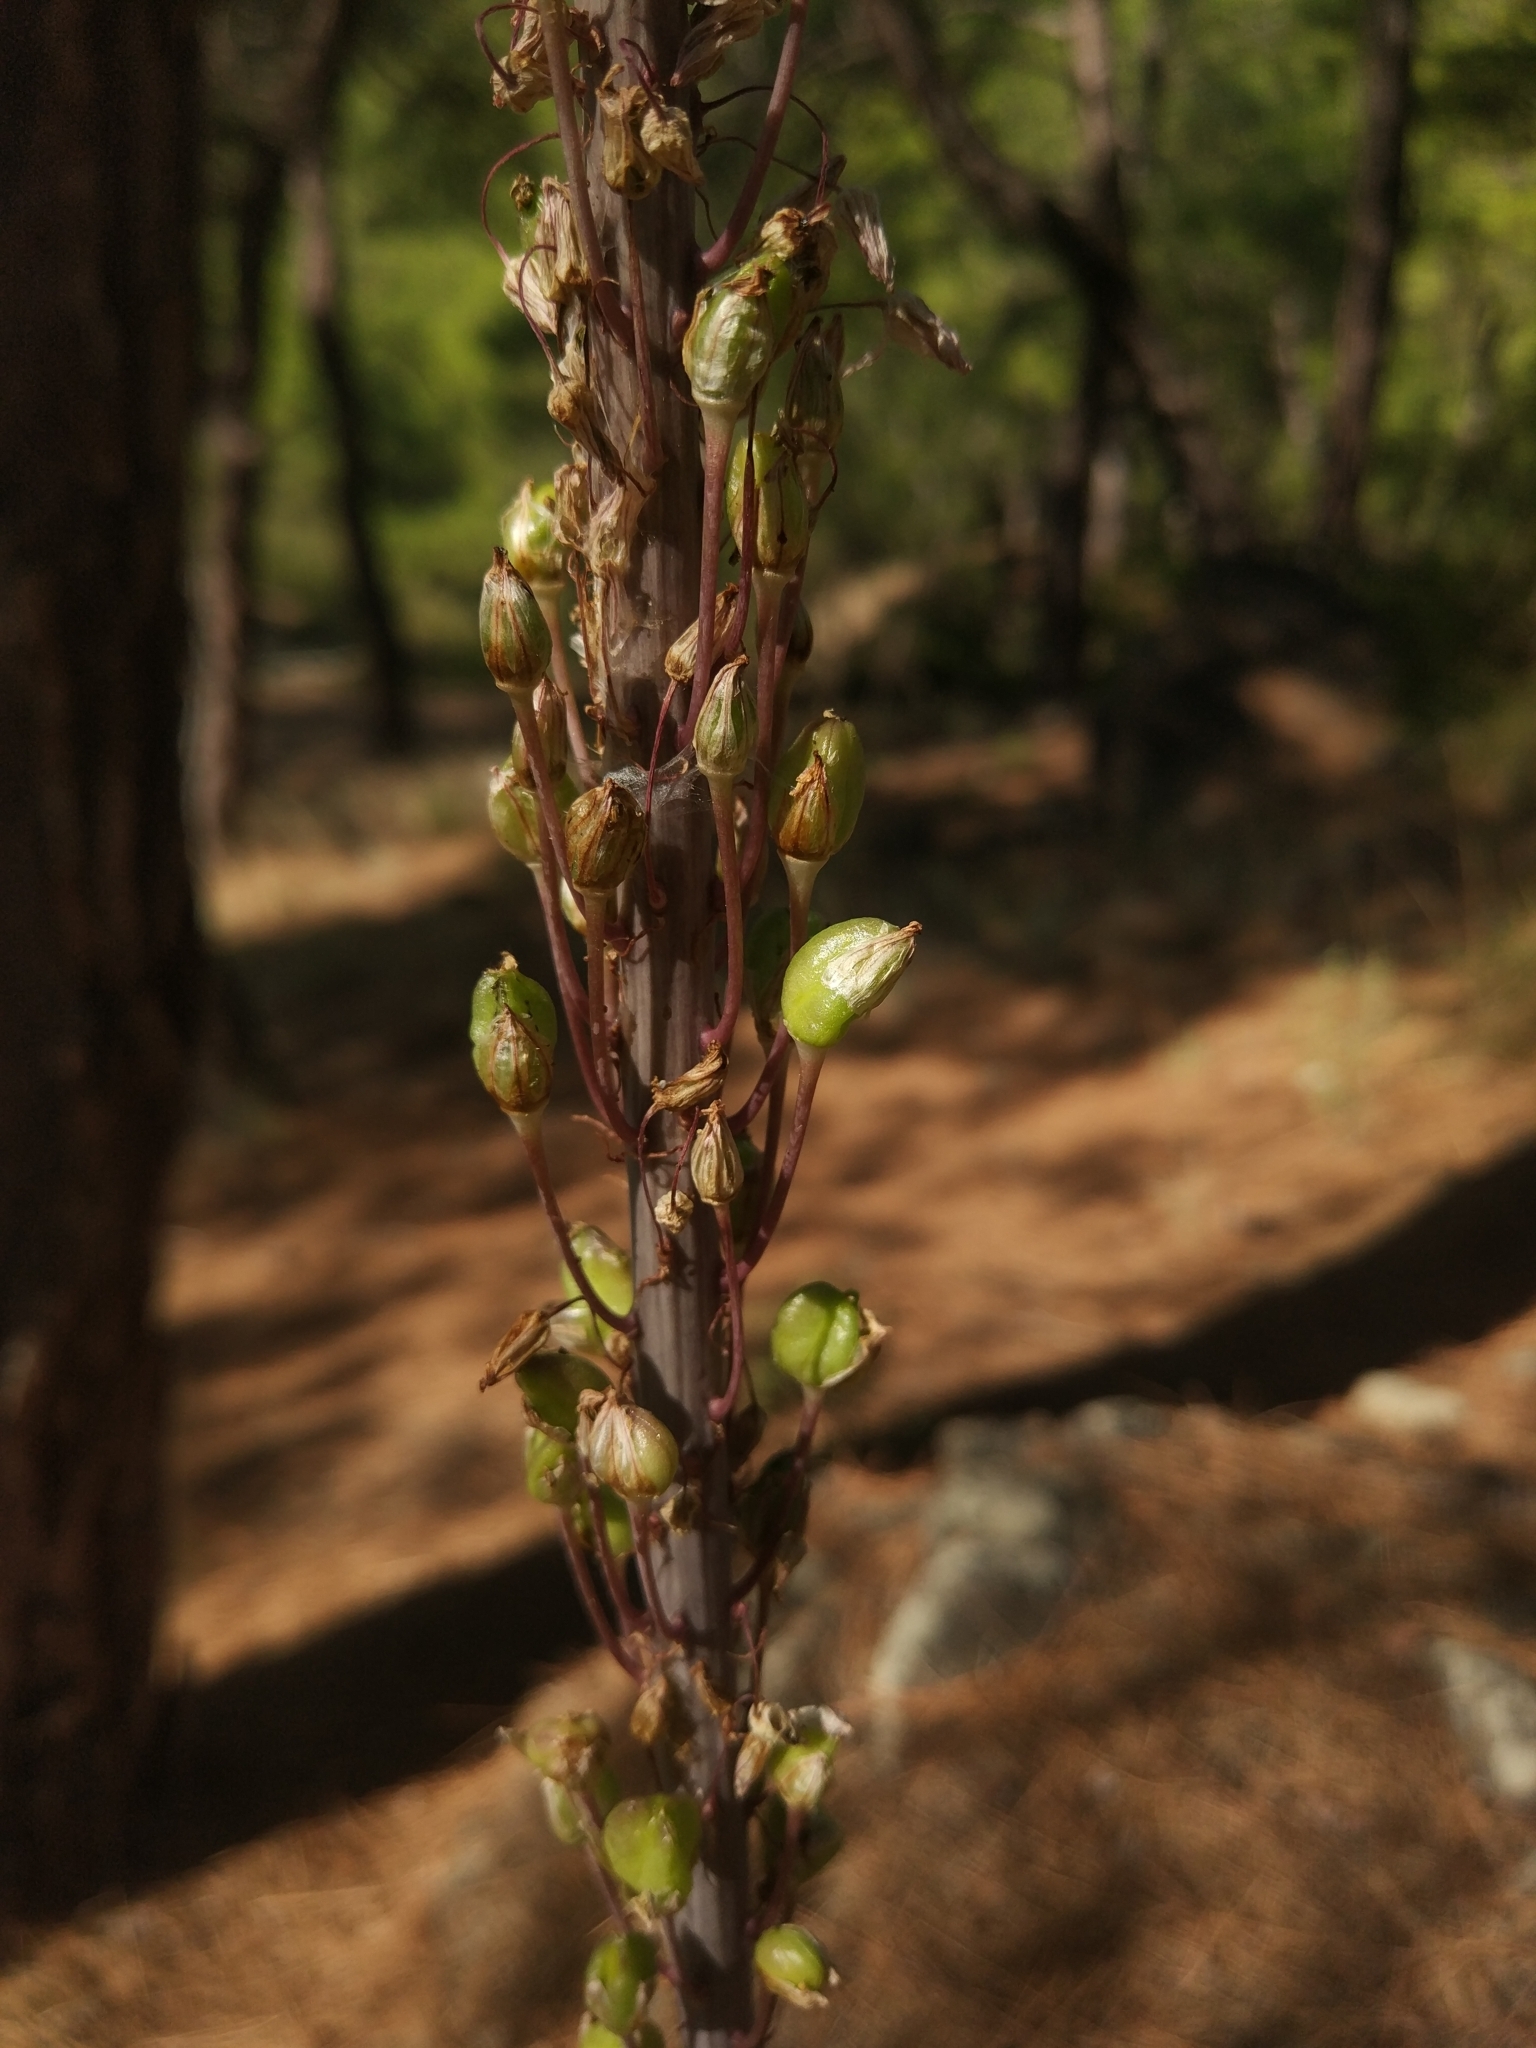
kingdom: Plantae
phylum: Tracheophyta
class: Liliopsida
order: Asparagales
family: Asparagaceae
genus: Drimia
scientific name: Drimia aphylla
